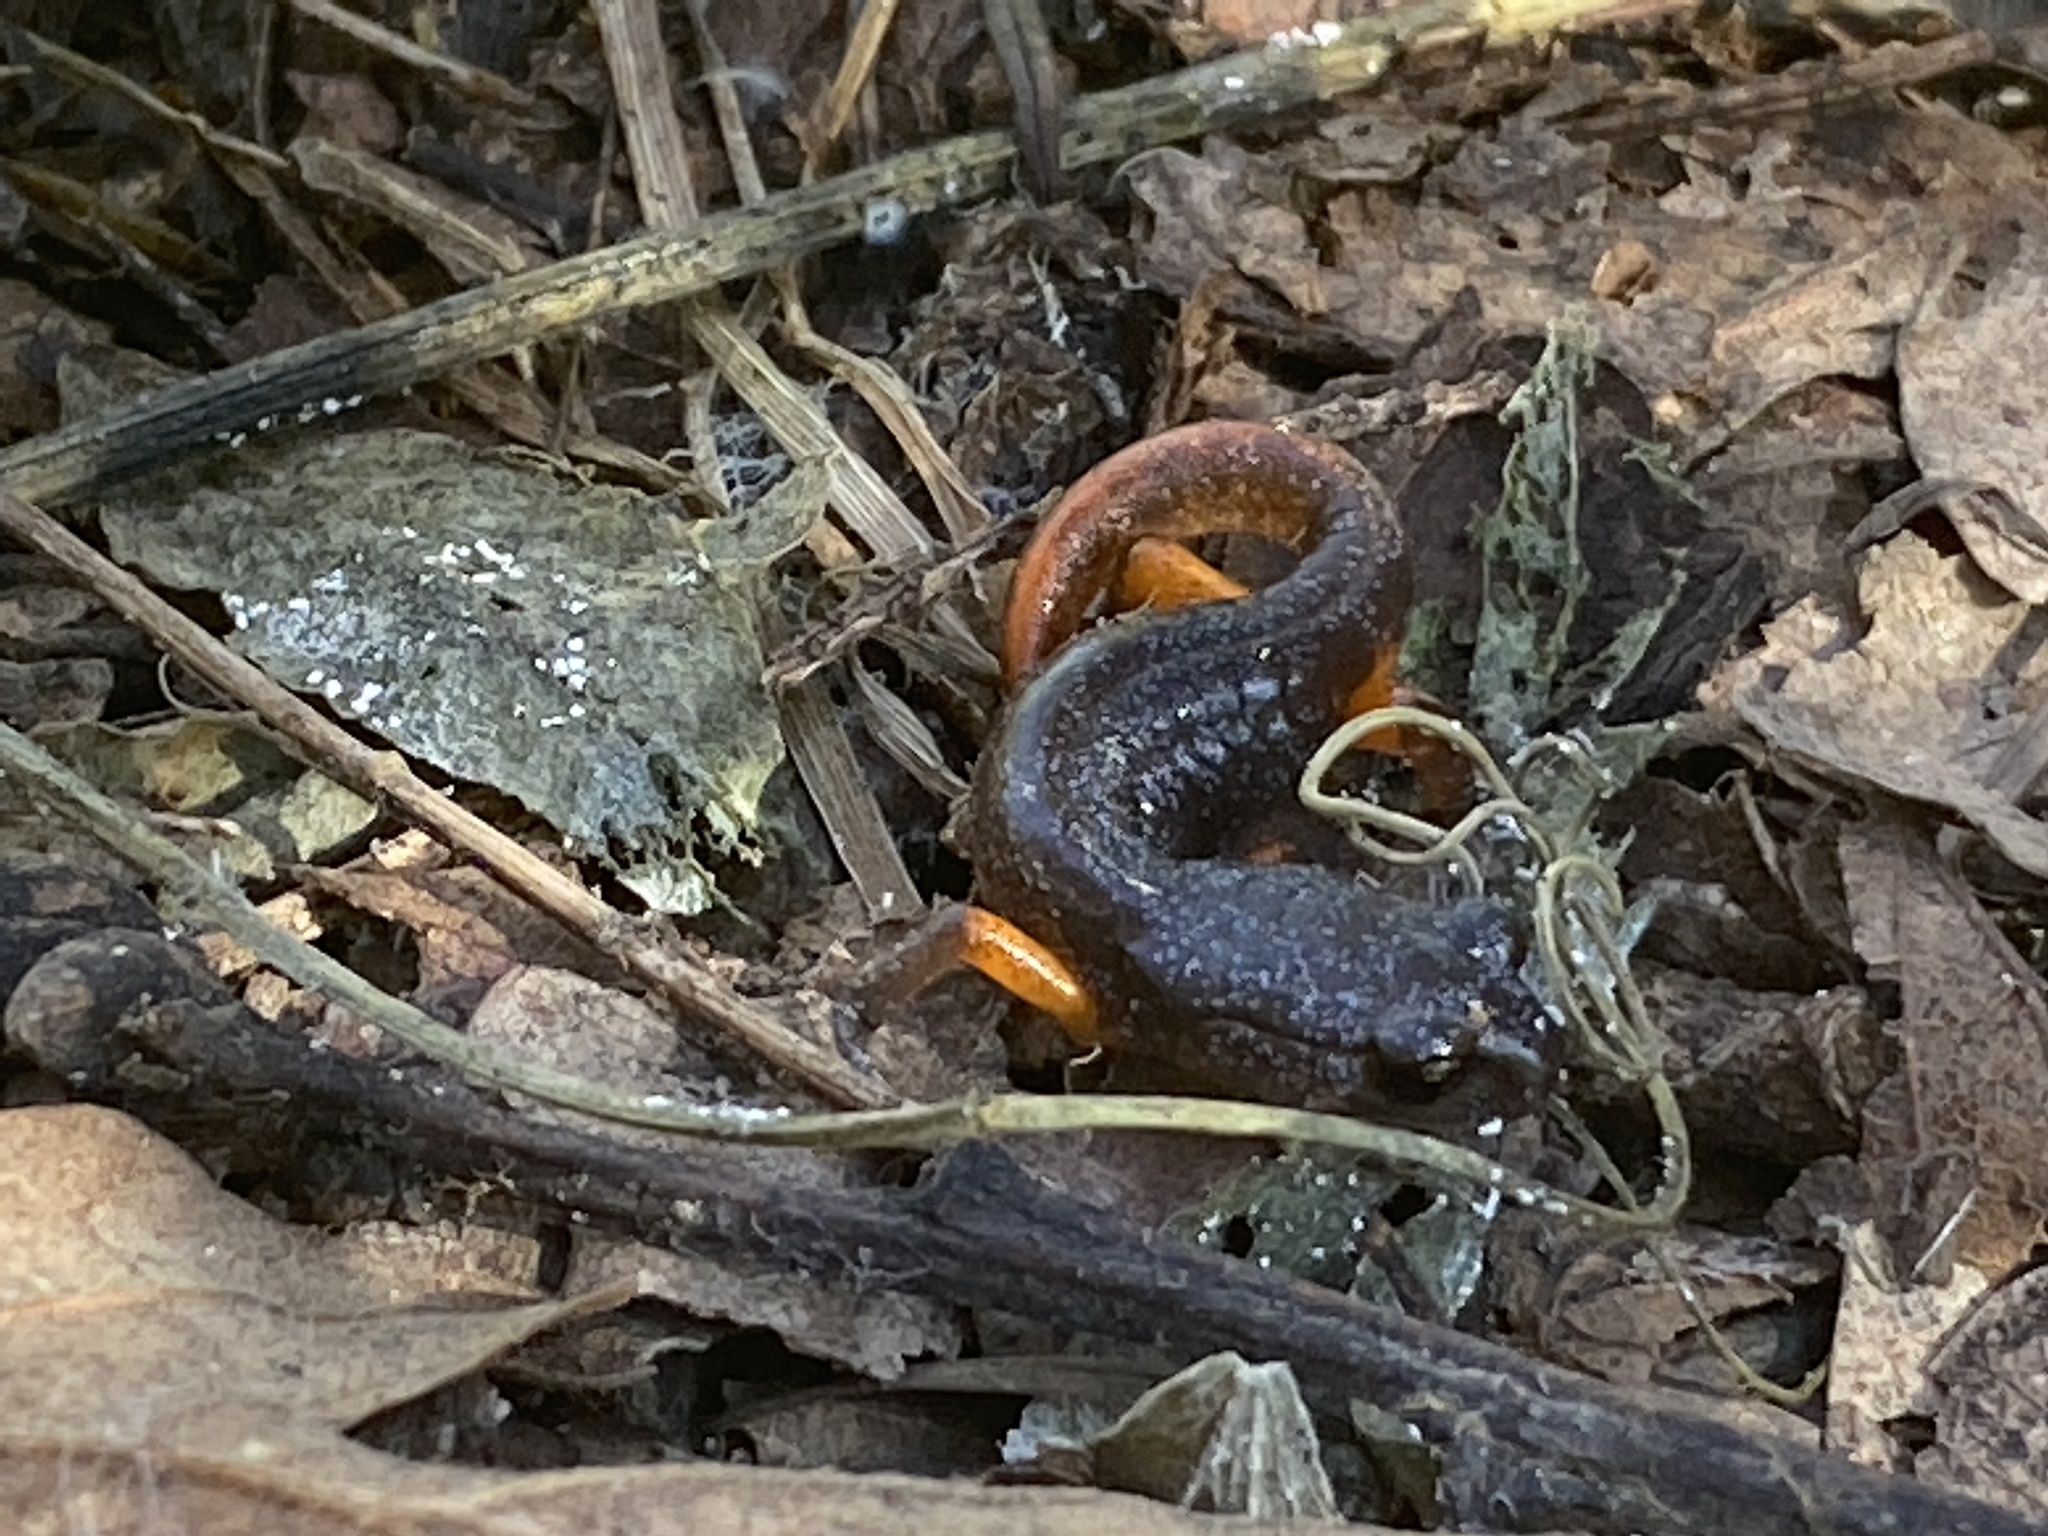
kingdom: Animalia
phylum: Chordata
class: Amphibia
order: Caudata
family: Plethodontidae
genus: Ensatina
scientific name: Ensatina eschscholtzii
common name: Ensatina
